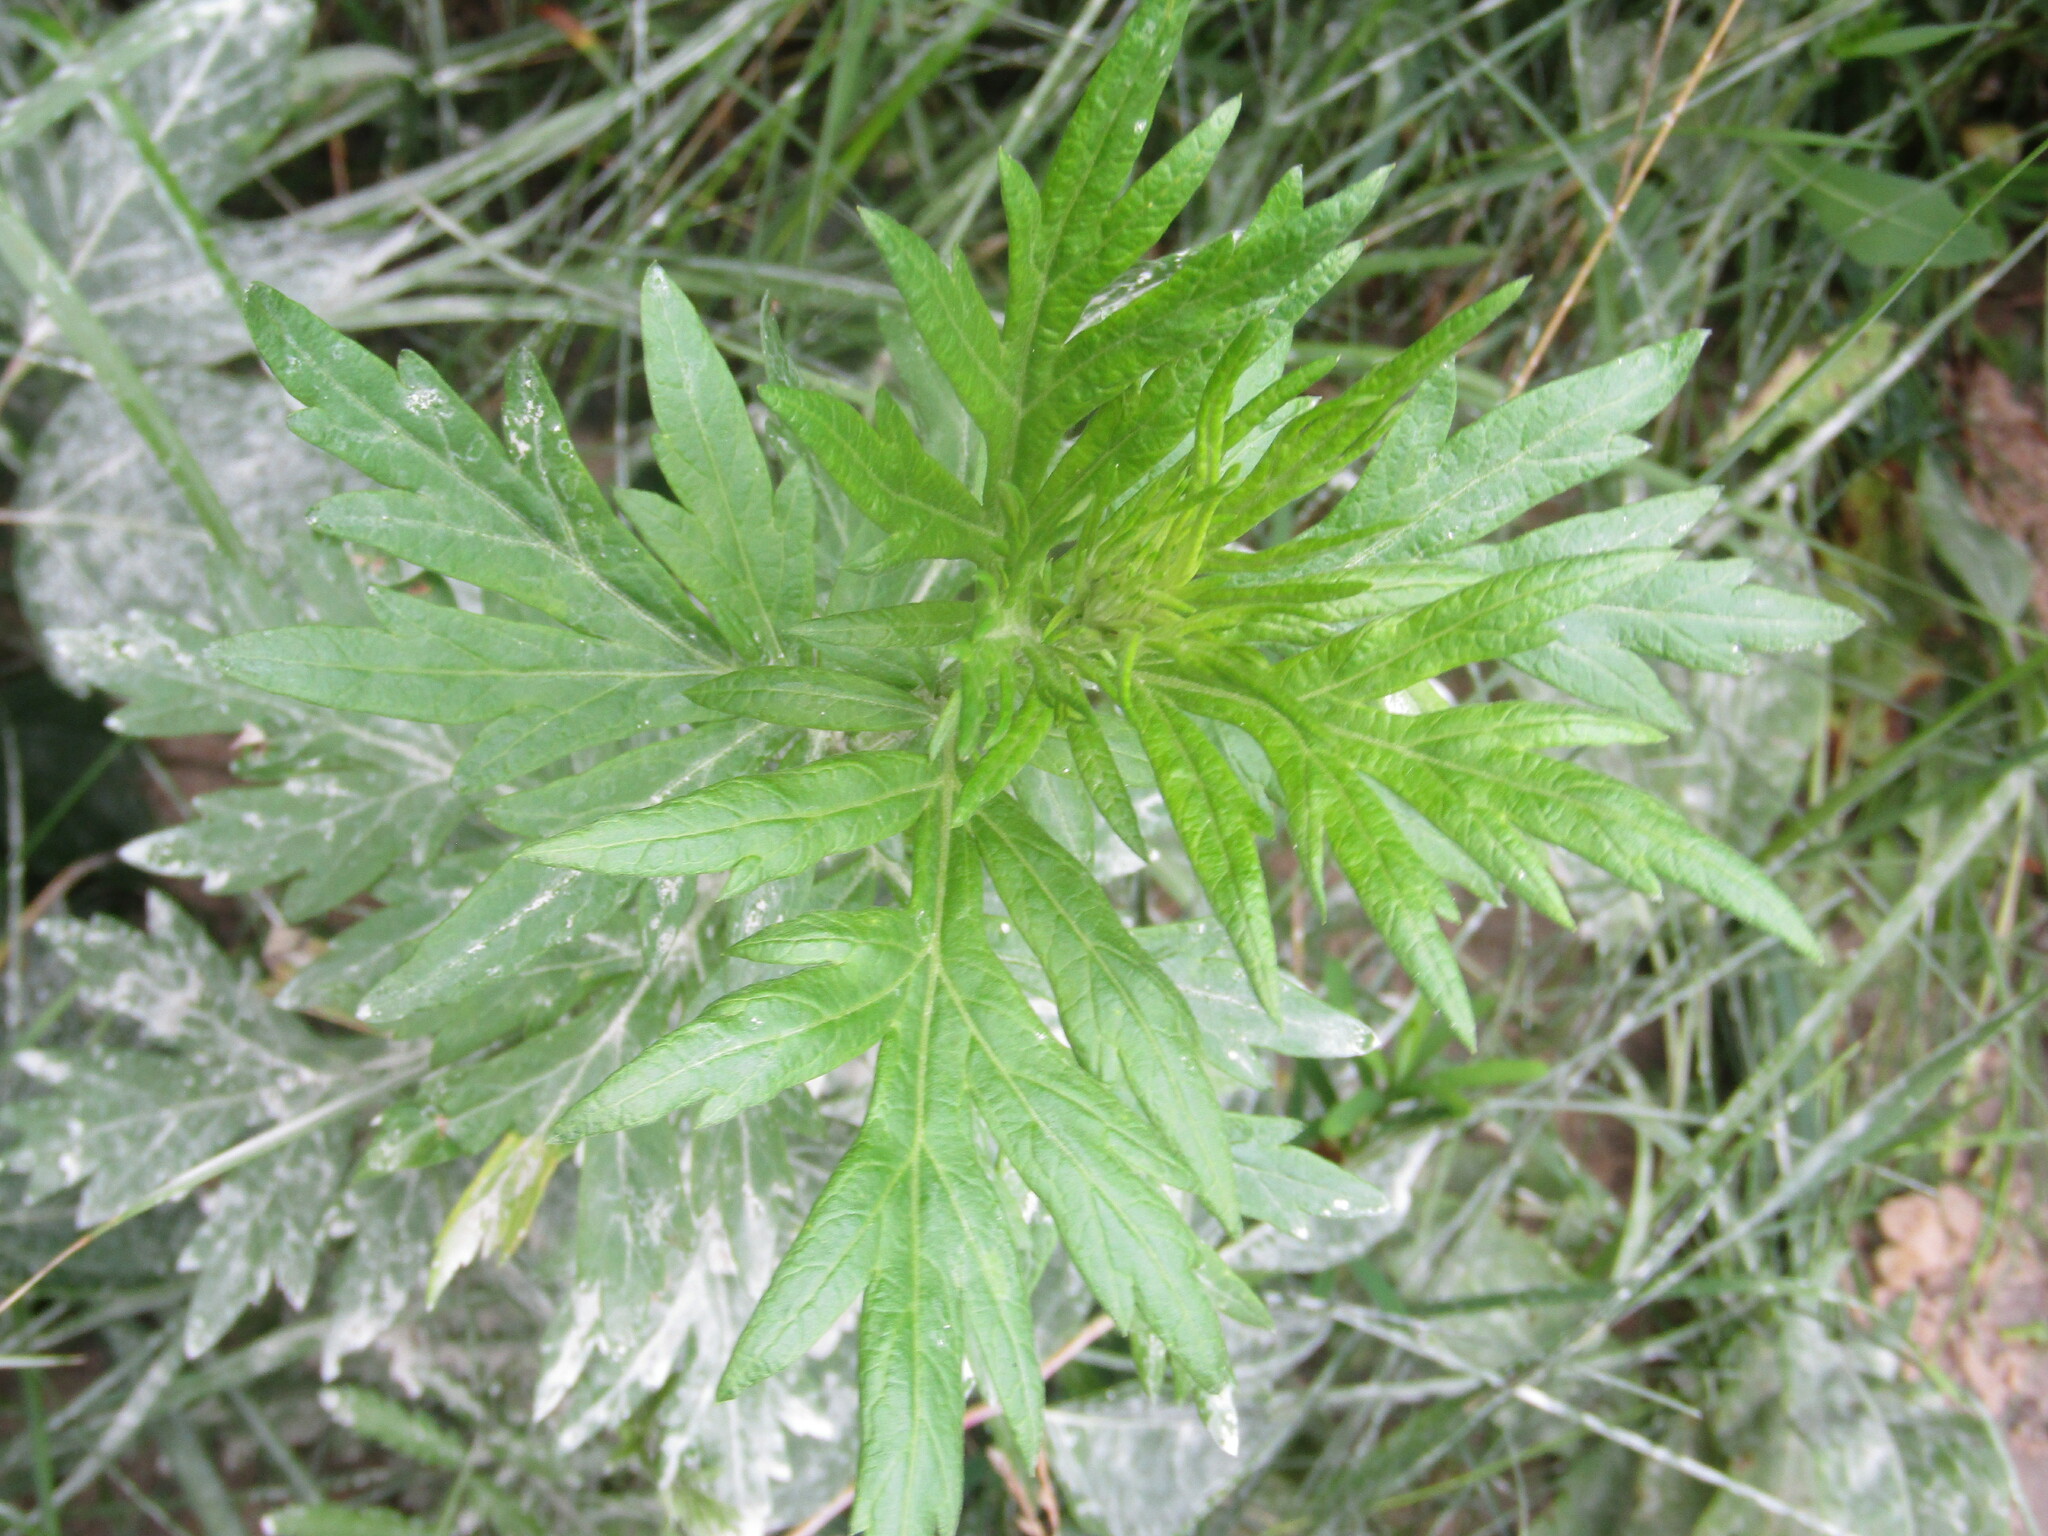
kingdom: Plantae
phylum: Tracheophyta
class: Magnoliopsida
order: Asterales
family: Asteraceae
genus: Artemisia
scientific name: Artemisia vulgaris
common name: Mugwort
